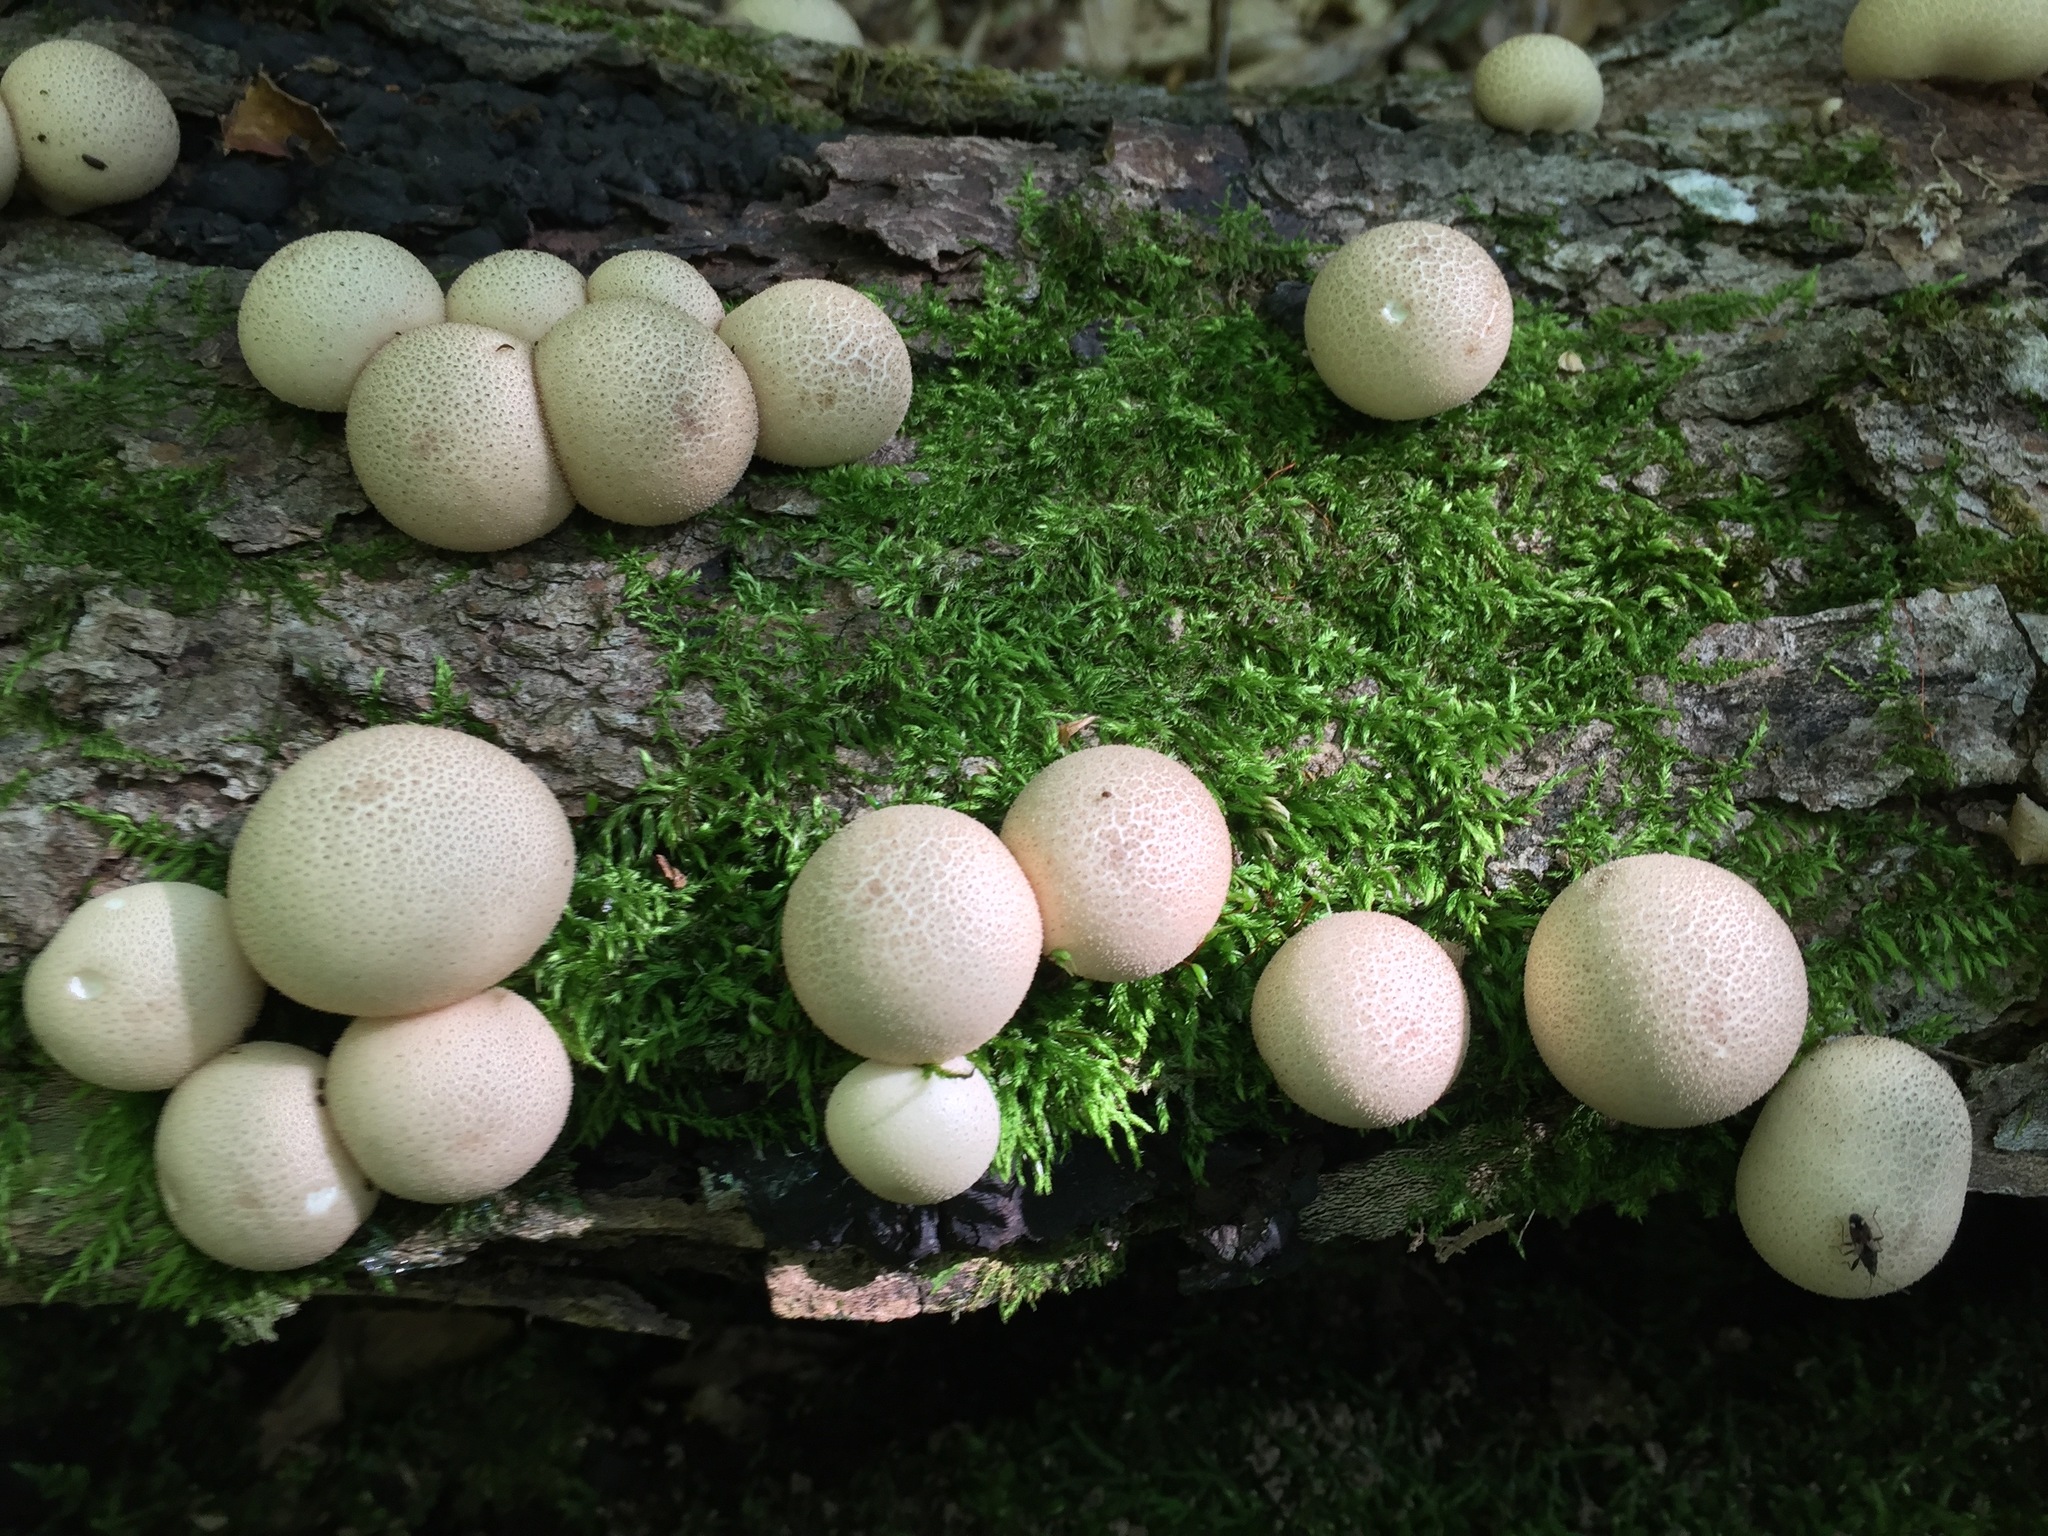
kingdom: Fungi
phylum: Basidiomycota
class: Agaricomycetes
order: Agaricales
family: Lycoperdaceae
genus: Apioperdon
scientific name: Apioperdon pyriforme
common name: Pear-shaped puffball
